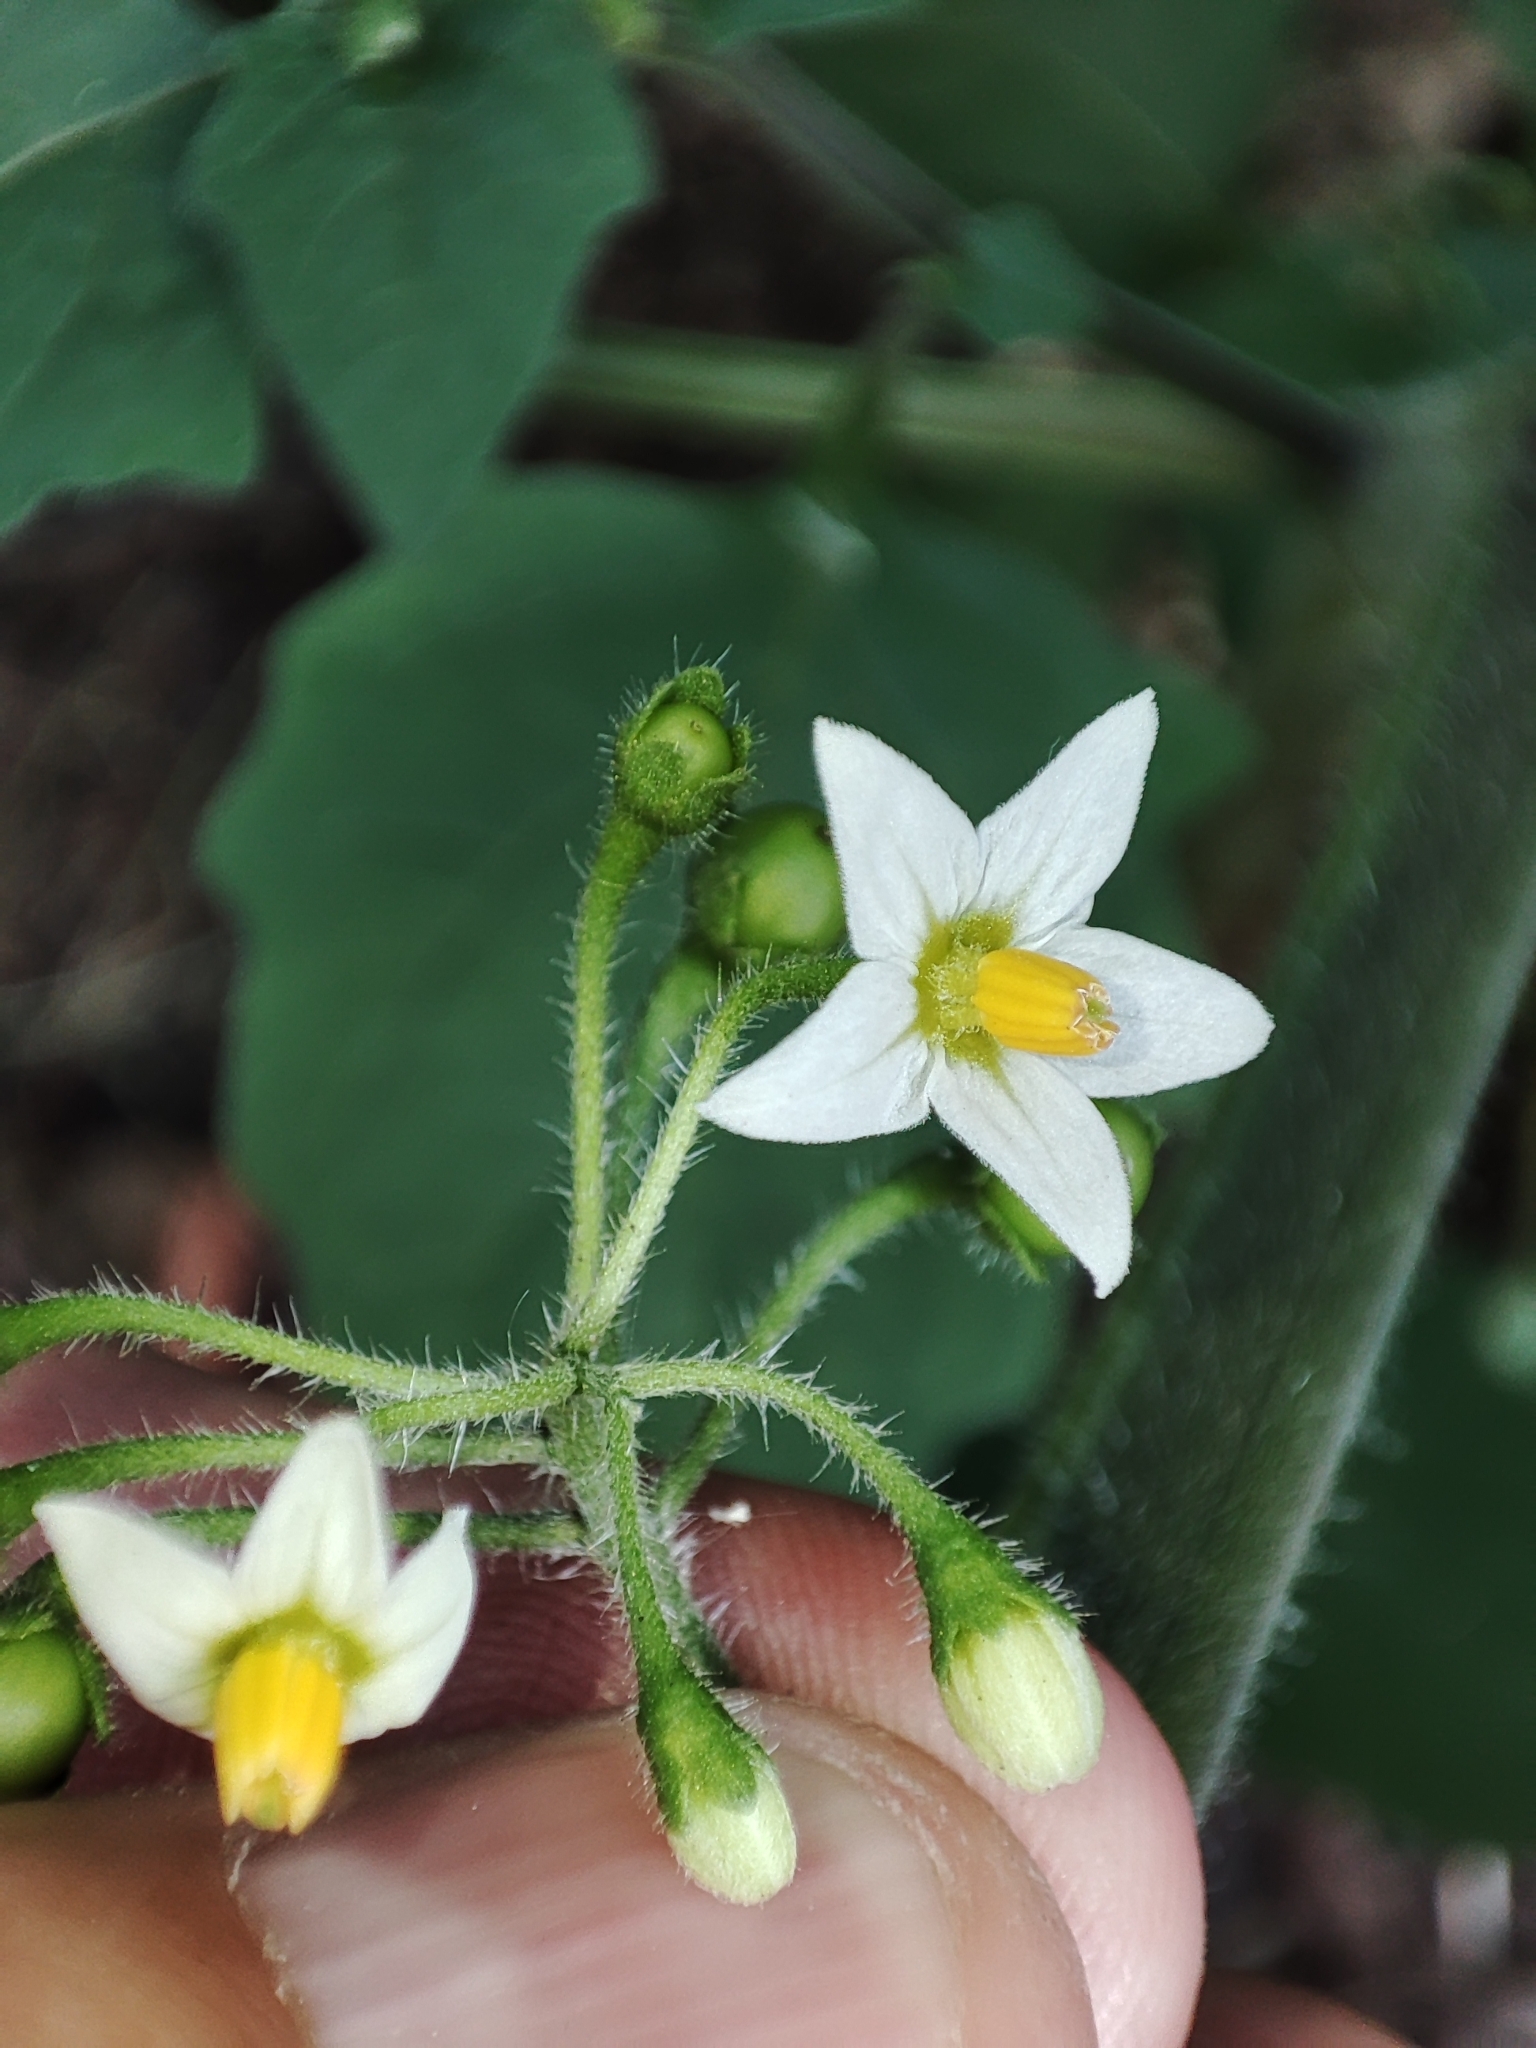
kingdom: Plantae
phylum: Tracheophyta
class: Magnoliopsida
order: Solanales
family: Solanaceae
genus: Solanum
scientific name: Solanum nigrum
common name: Black nightshade
